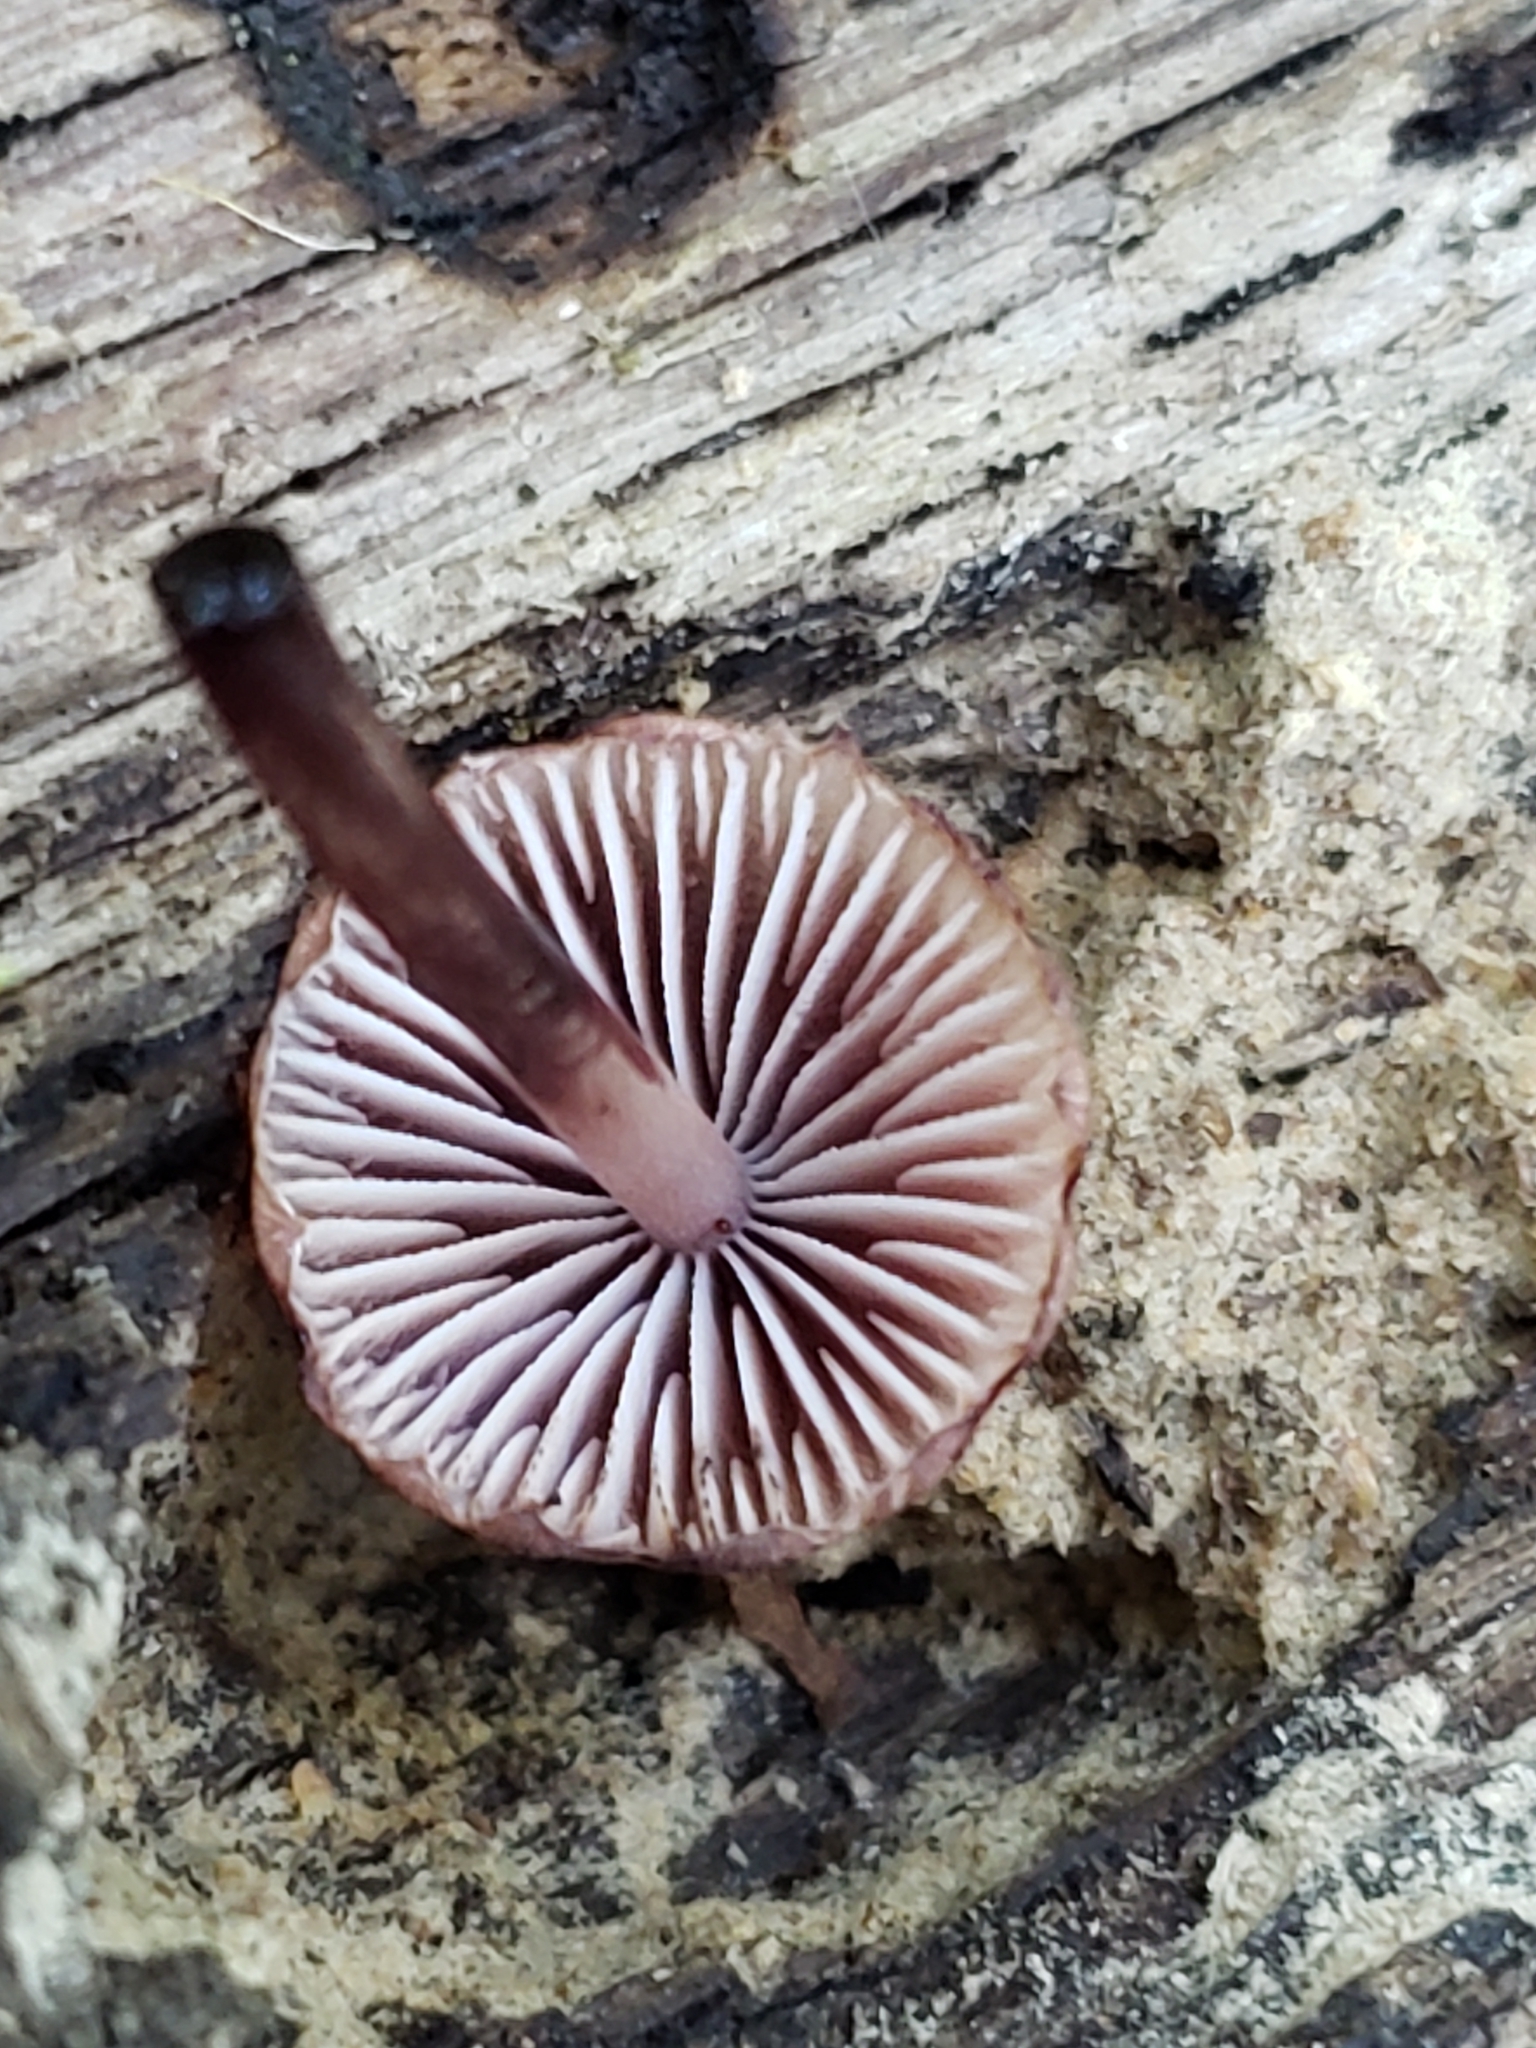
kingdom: Fungi
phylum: Basidiomycota
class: Agaricomycetes
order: Agaricales
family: Mycenaceae
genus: Mycena
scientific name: Mycena haematopus
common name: Burgundydrop bonnet
